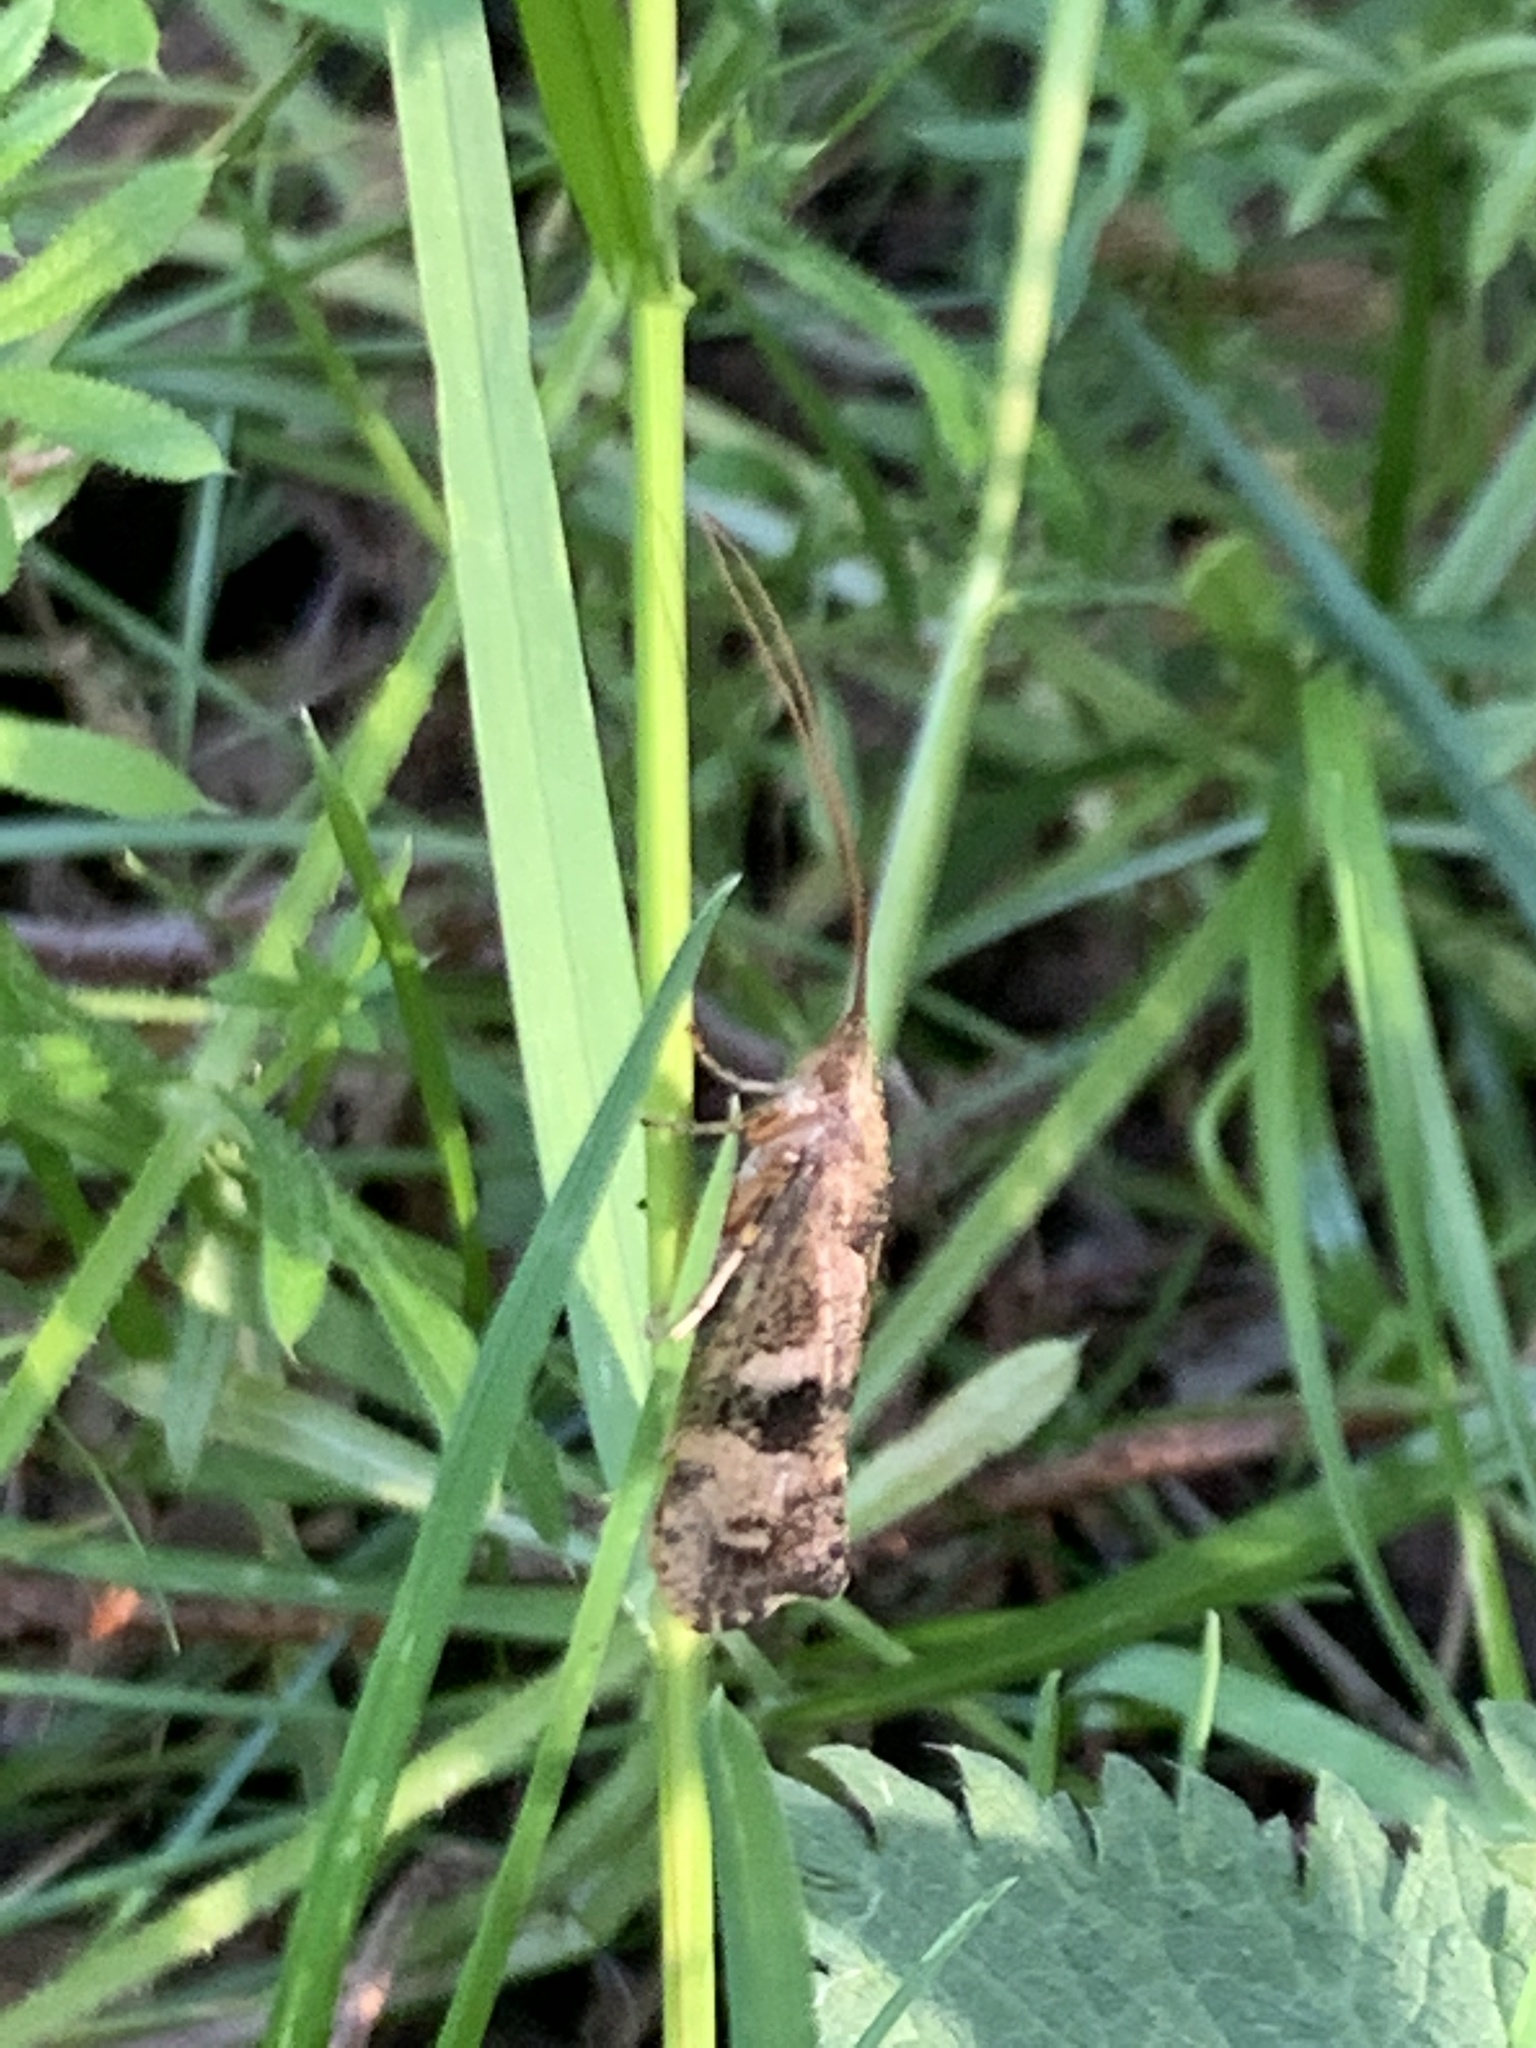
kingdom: Animalia
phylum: Arthropoda
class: Insecta
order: Trichoptera
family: Limnephilidae
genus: Glyphotaelius
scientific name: Glyphotaelius pellucidus
